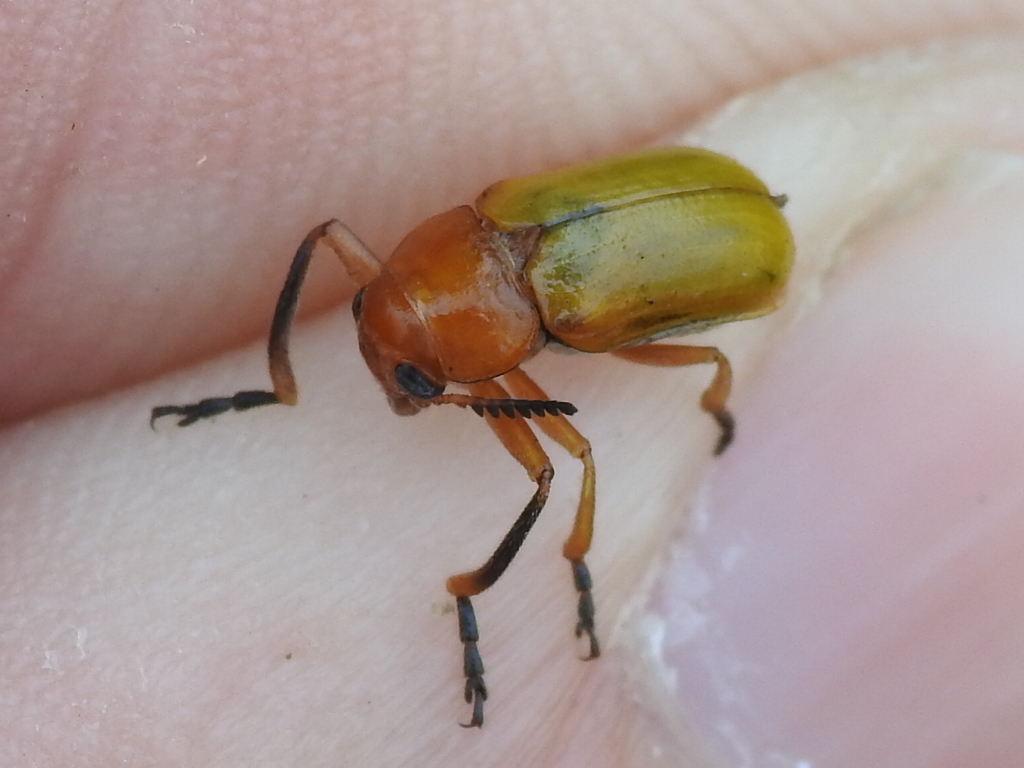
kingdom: Animalia
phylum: Arthropoda
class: Insecta
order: Coleoptera
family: Chrysomelidae
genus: Anomoea
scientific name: Anomoea laticlavia
